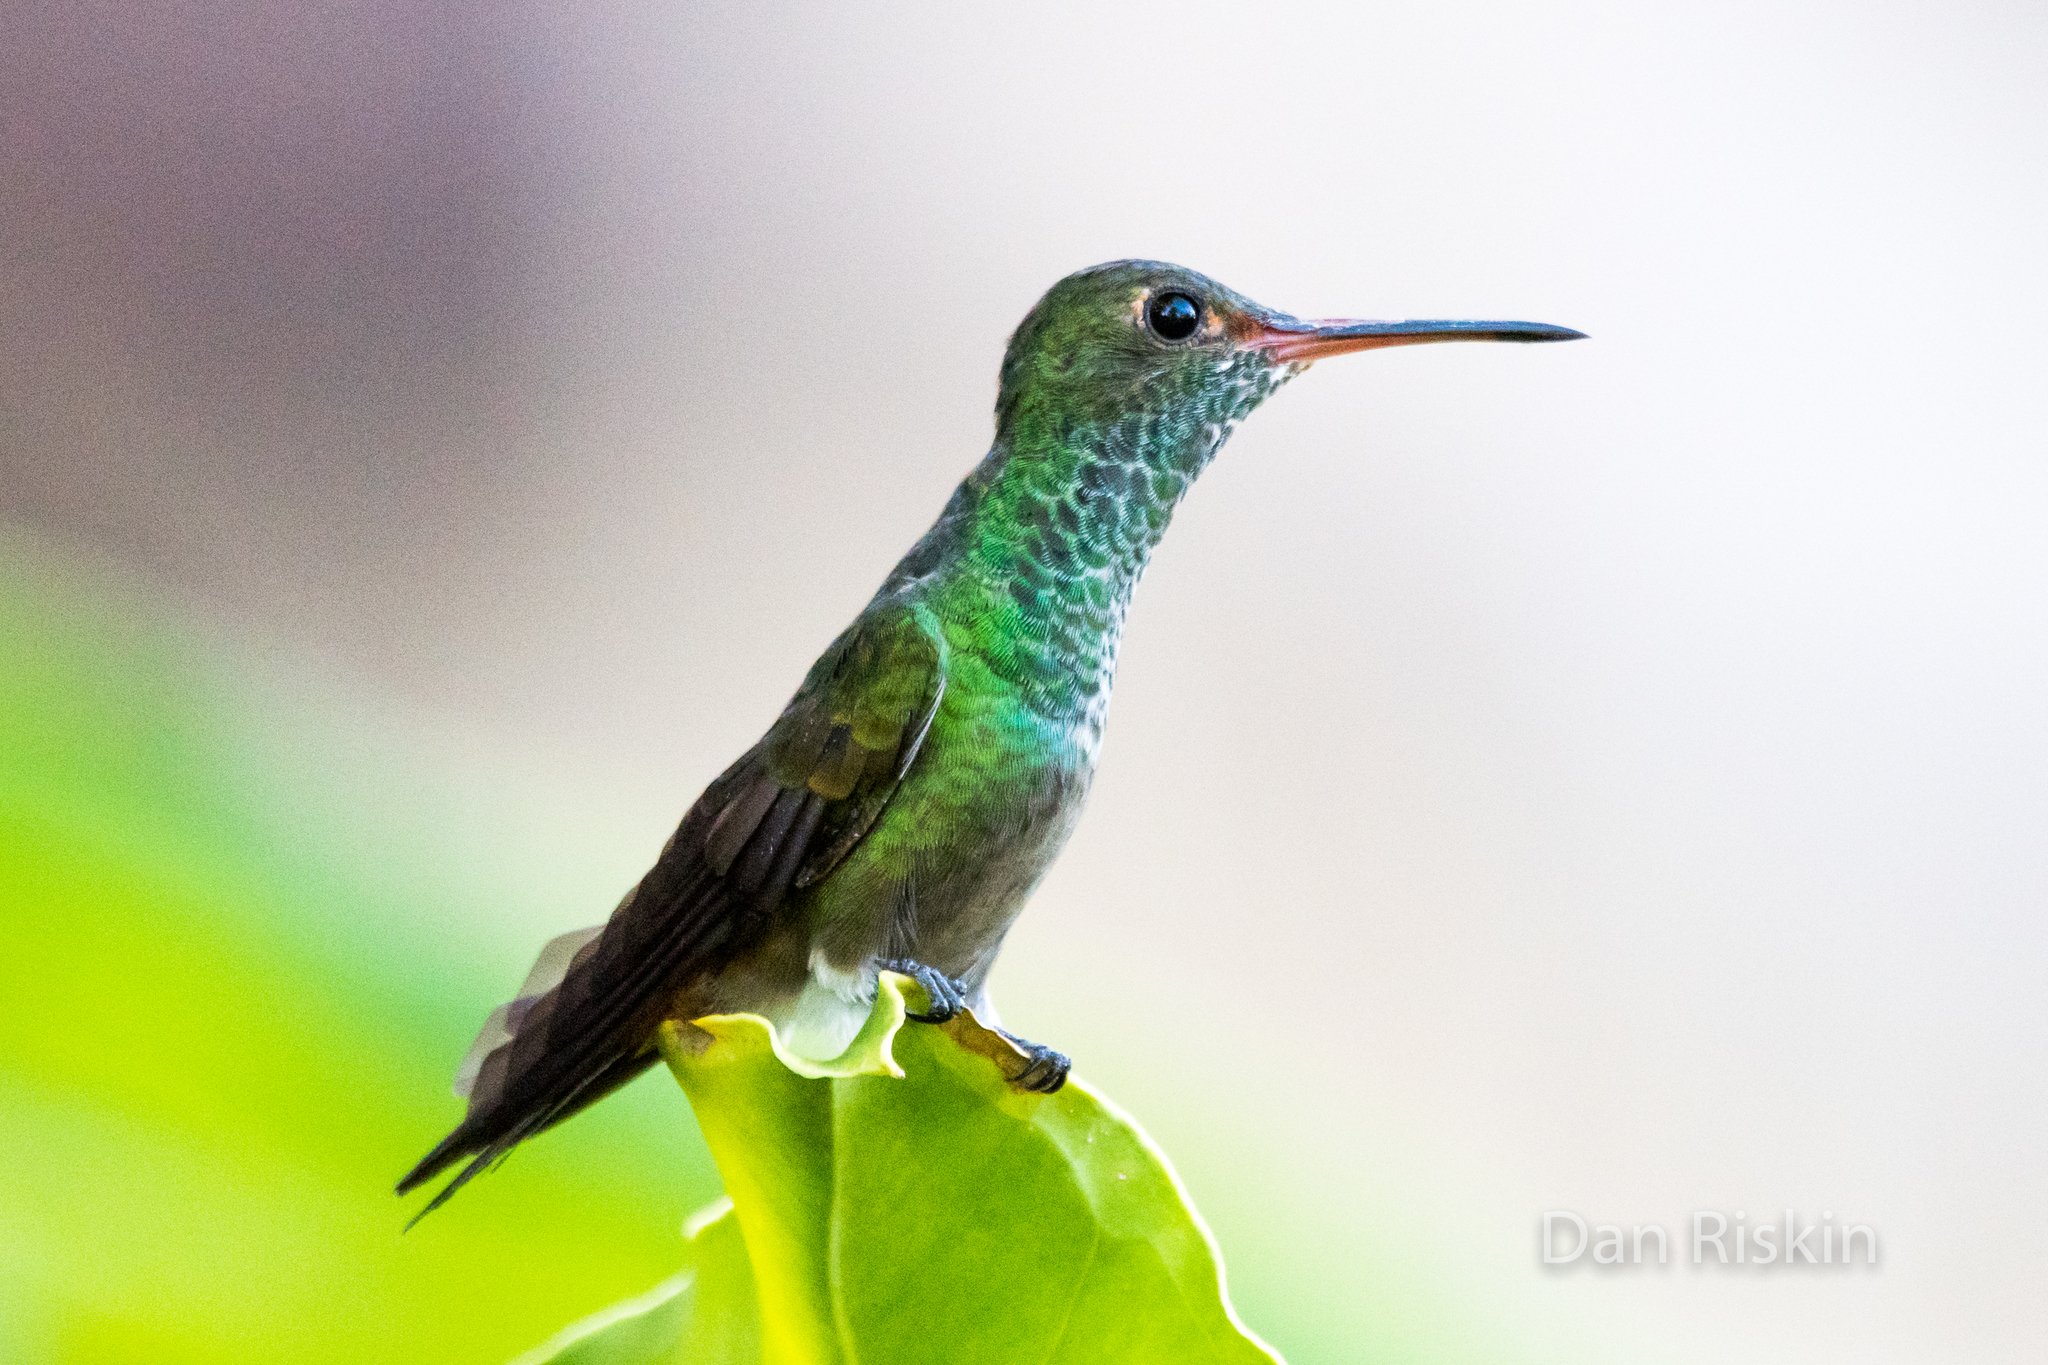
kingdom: Animalia
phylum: Chordata
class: Aves
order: Apodiformes
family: Trochilidae
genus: Amazilia
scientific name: Amazilia tzacatl
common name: Rufous-tailed hummingbird
